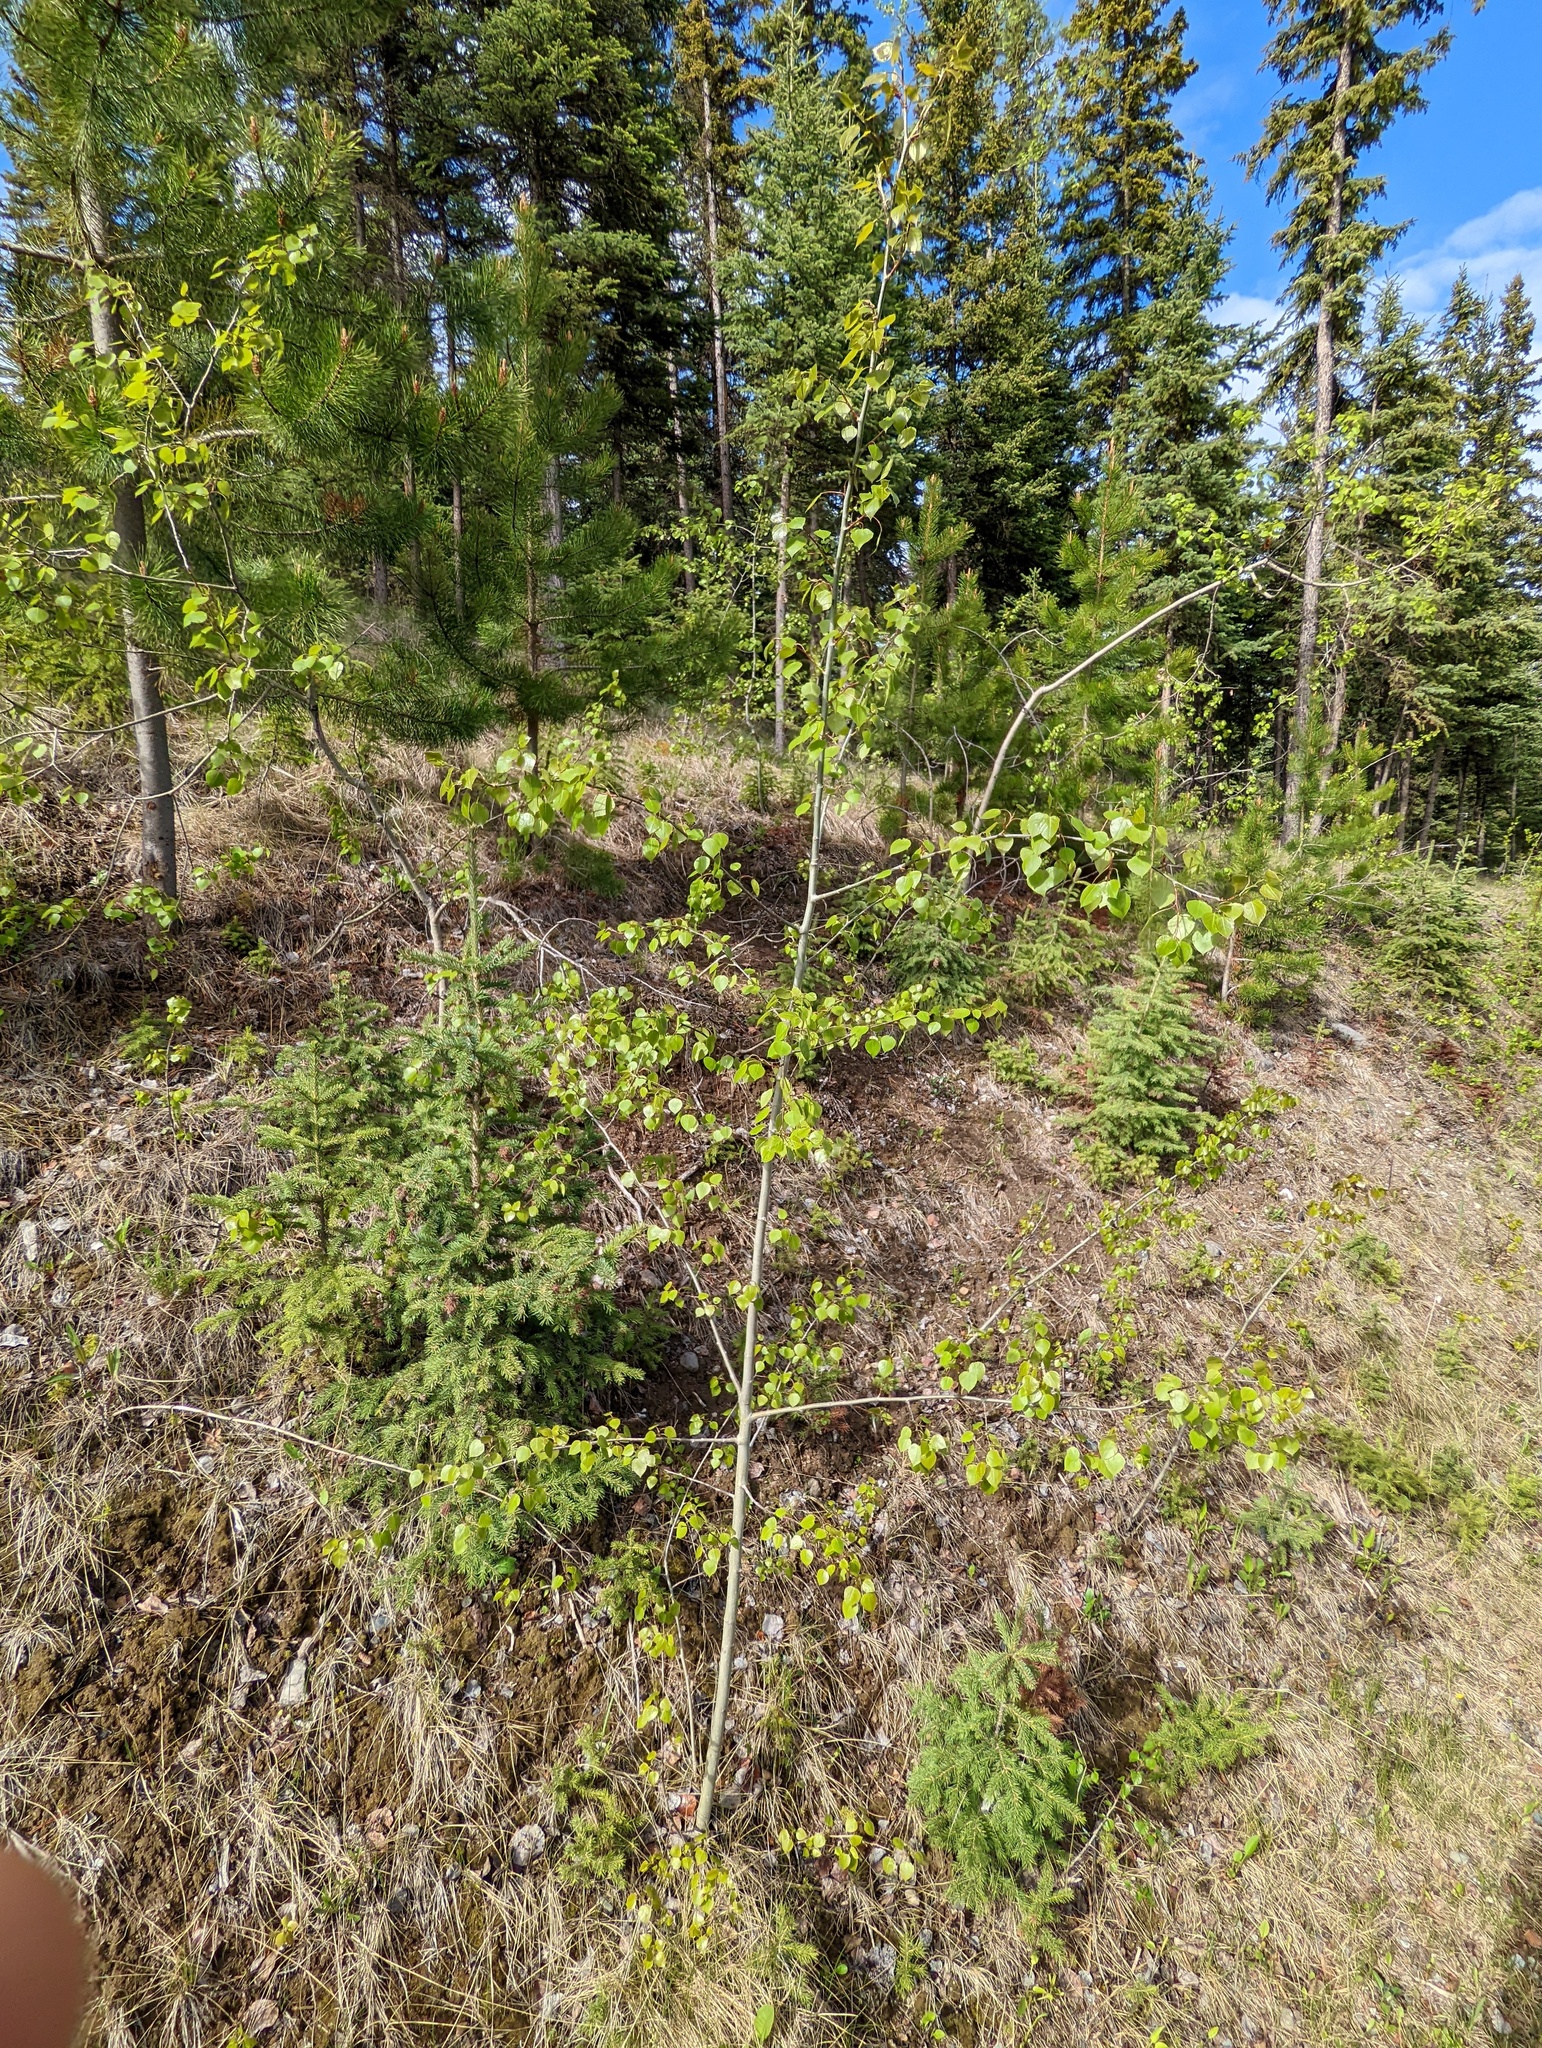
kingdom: Plantae
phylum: Tracheophyta
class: Magnoliopsida
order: Malpighiales
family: Salicaceae
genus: Populus
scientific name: Populus tremuloides
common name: Quaking aspen
